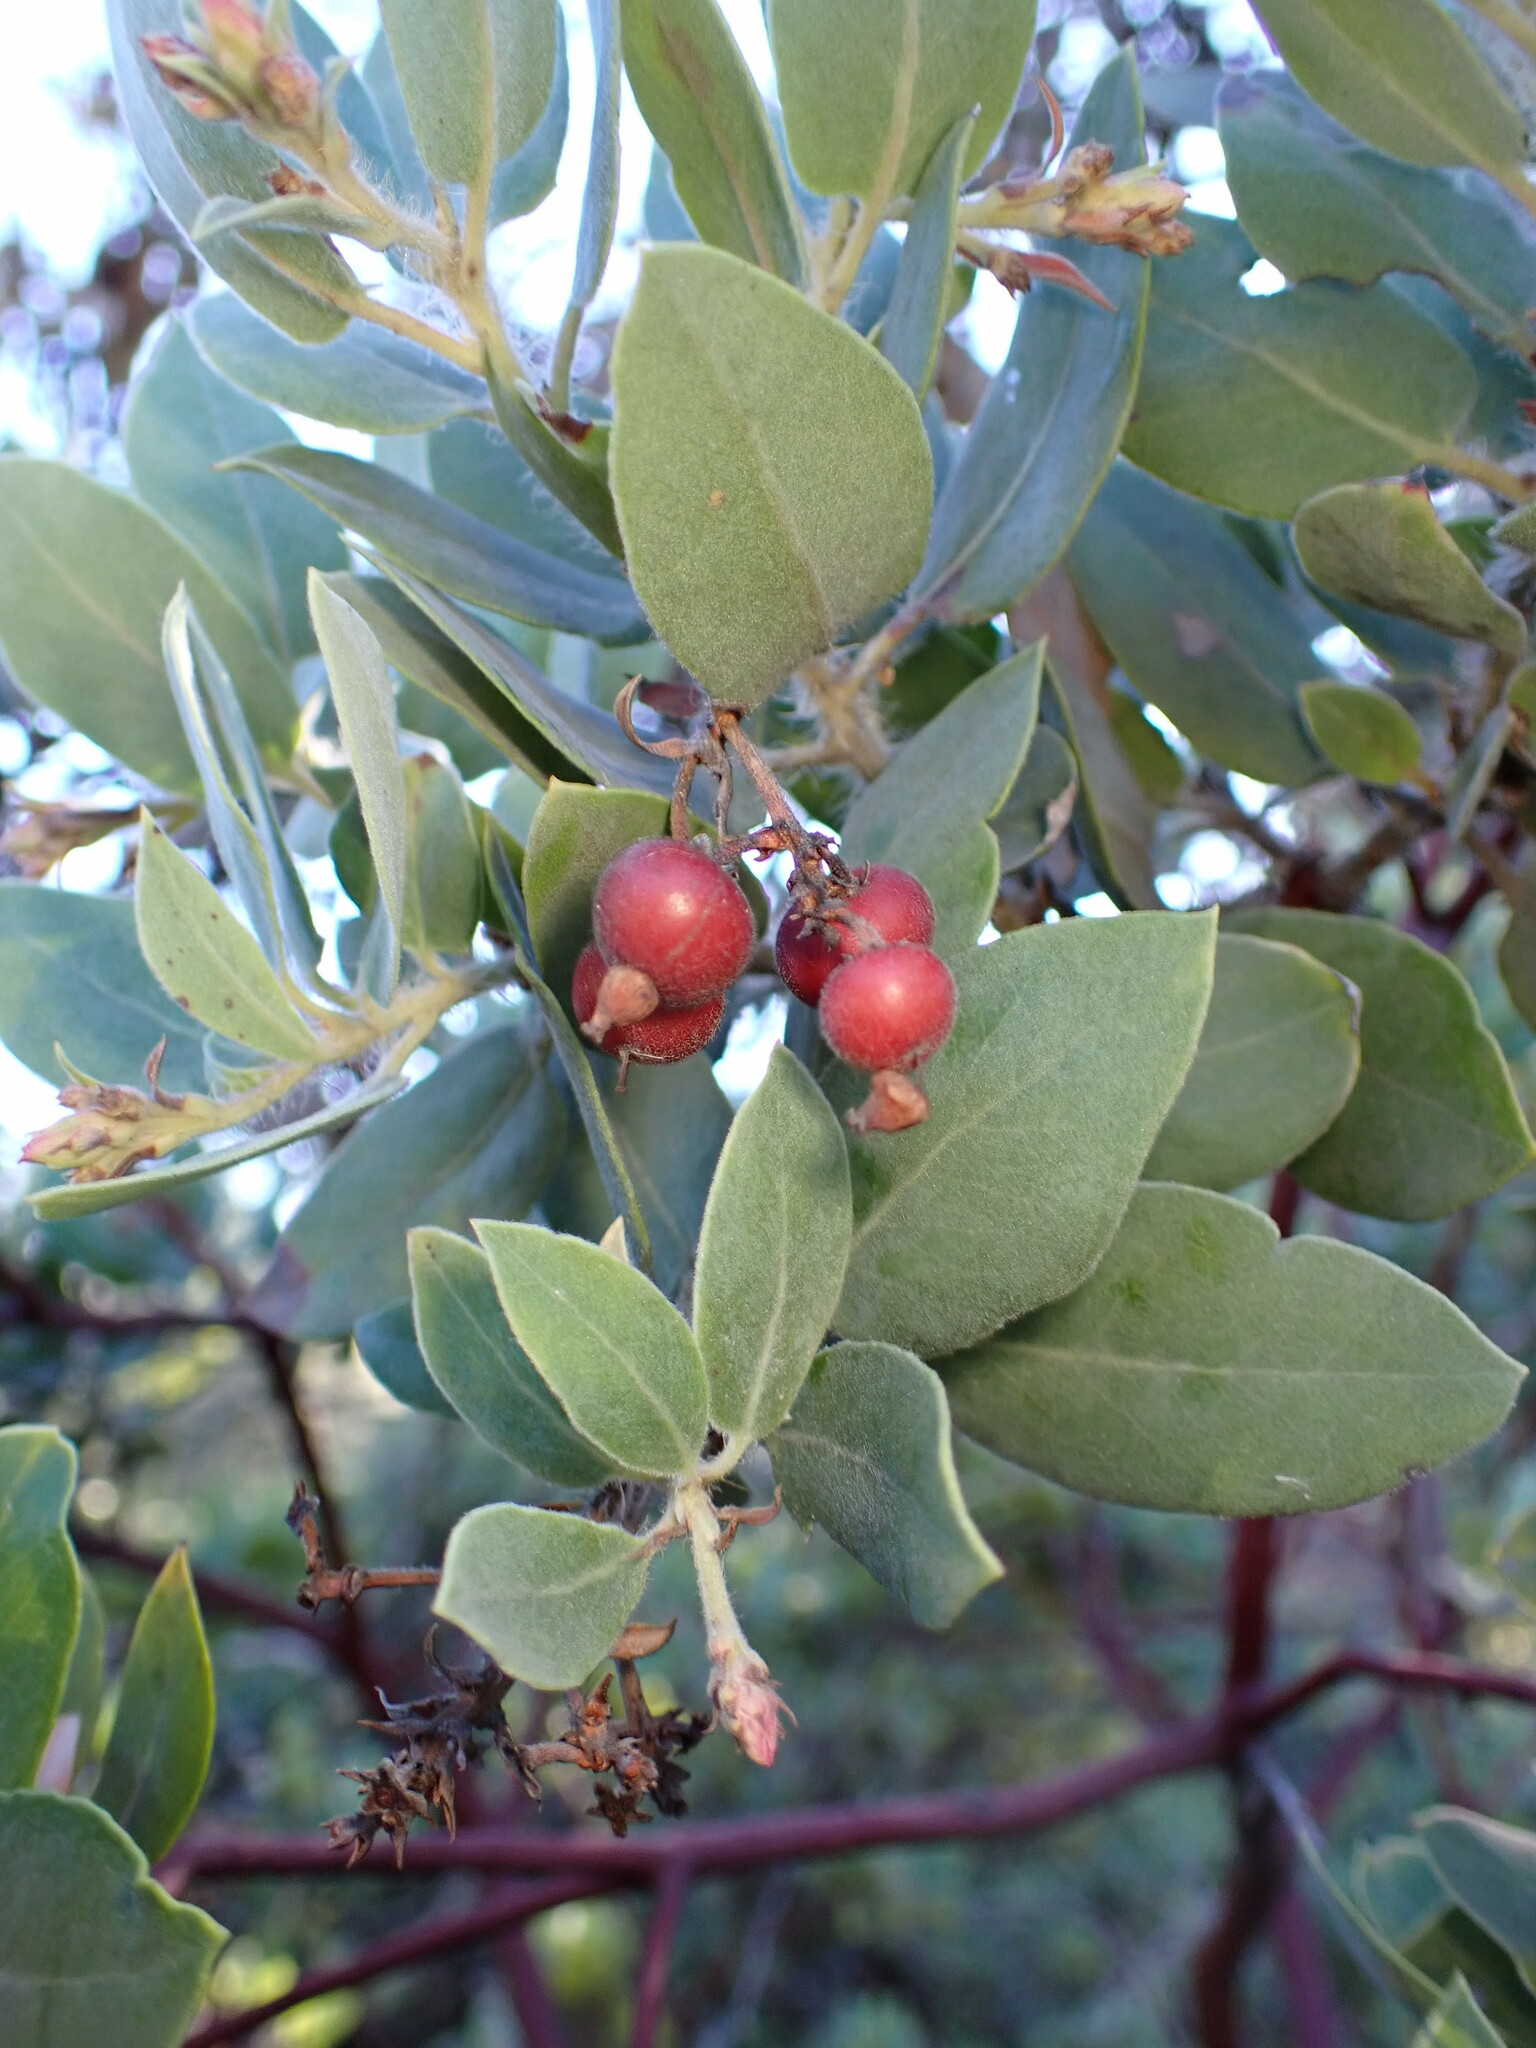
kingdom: Plantae
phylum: Tracheophyta
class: Magnoliopsida
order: Ericales
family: Ericaceae
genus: Arctostaphylos
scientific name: Arctostaphylos crustacea
